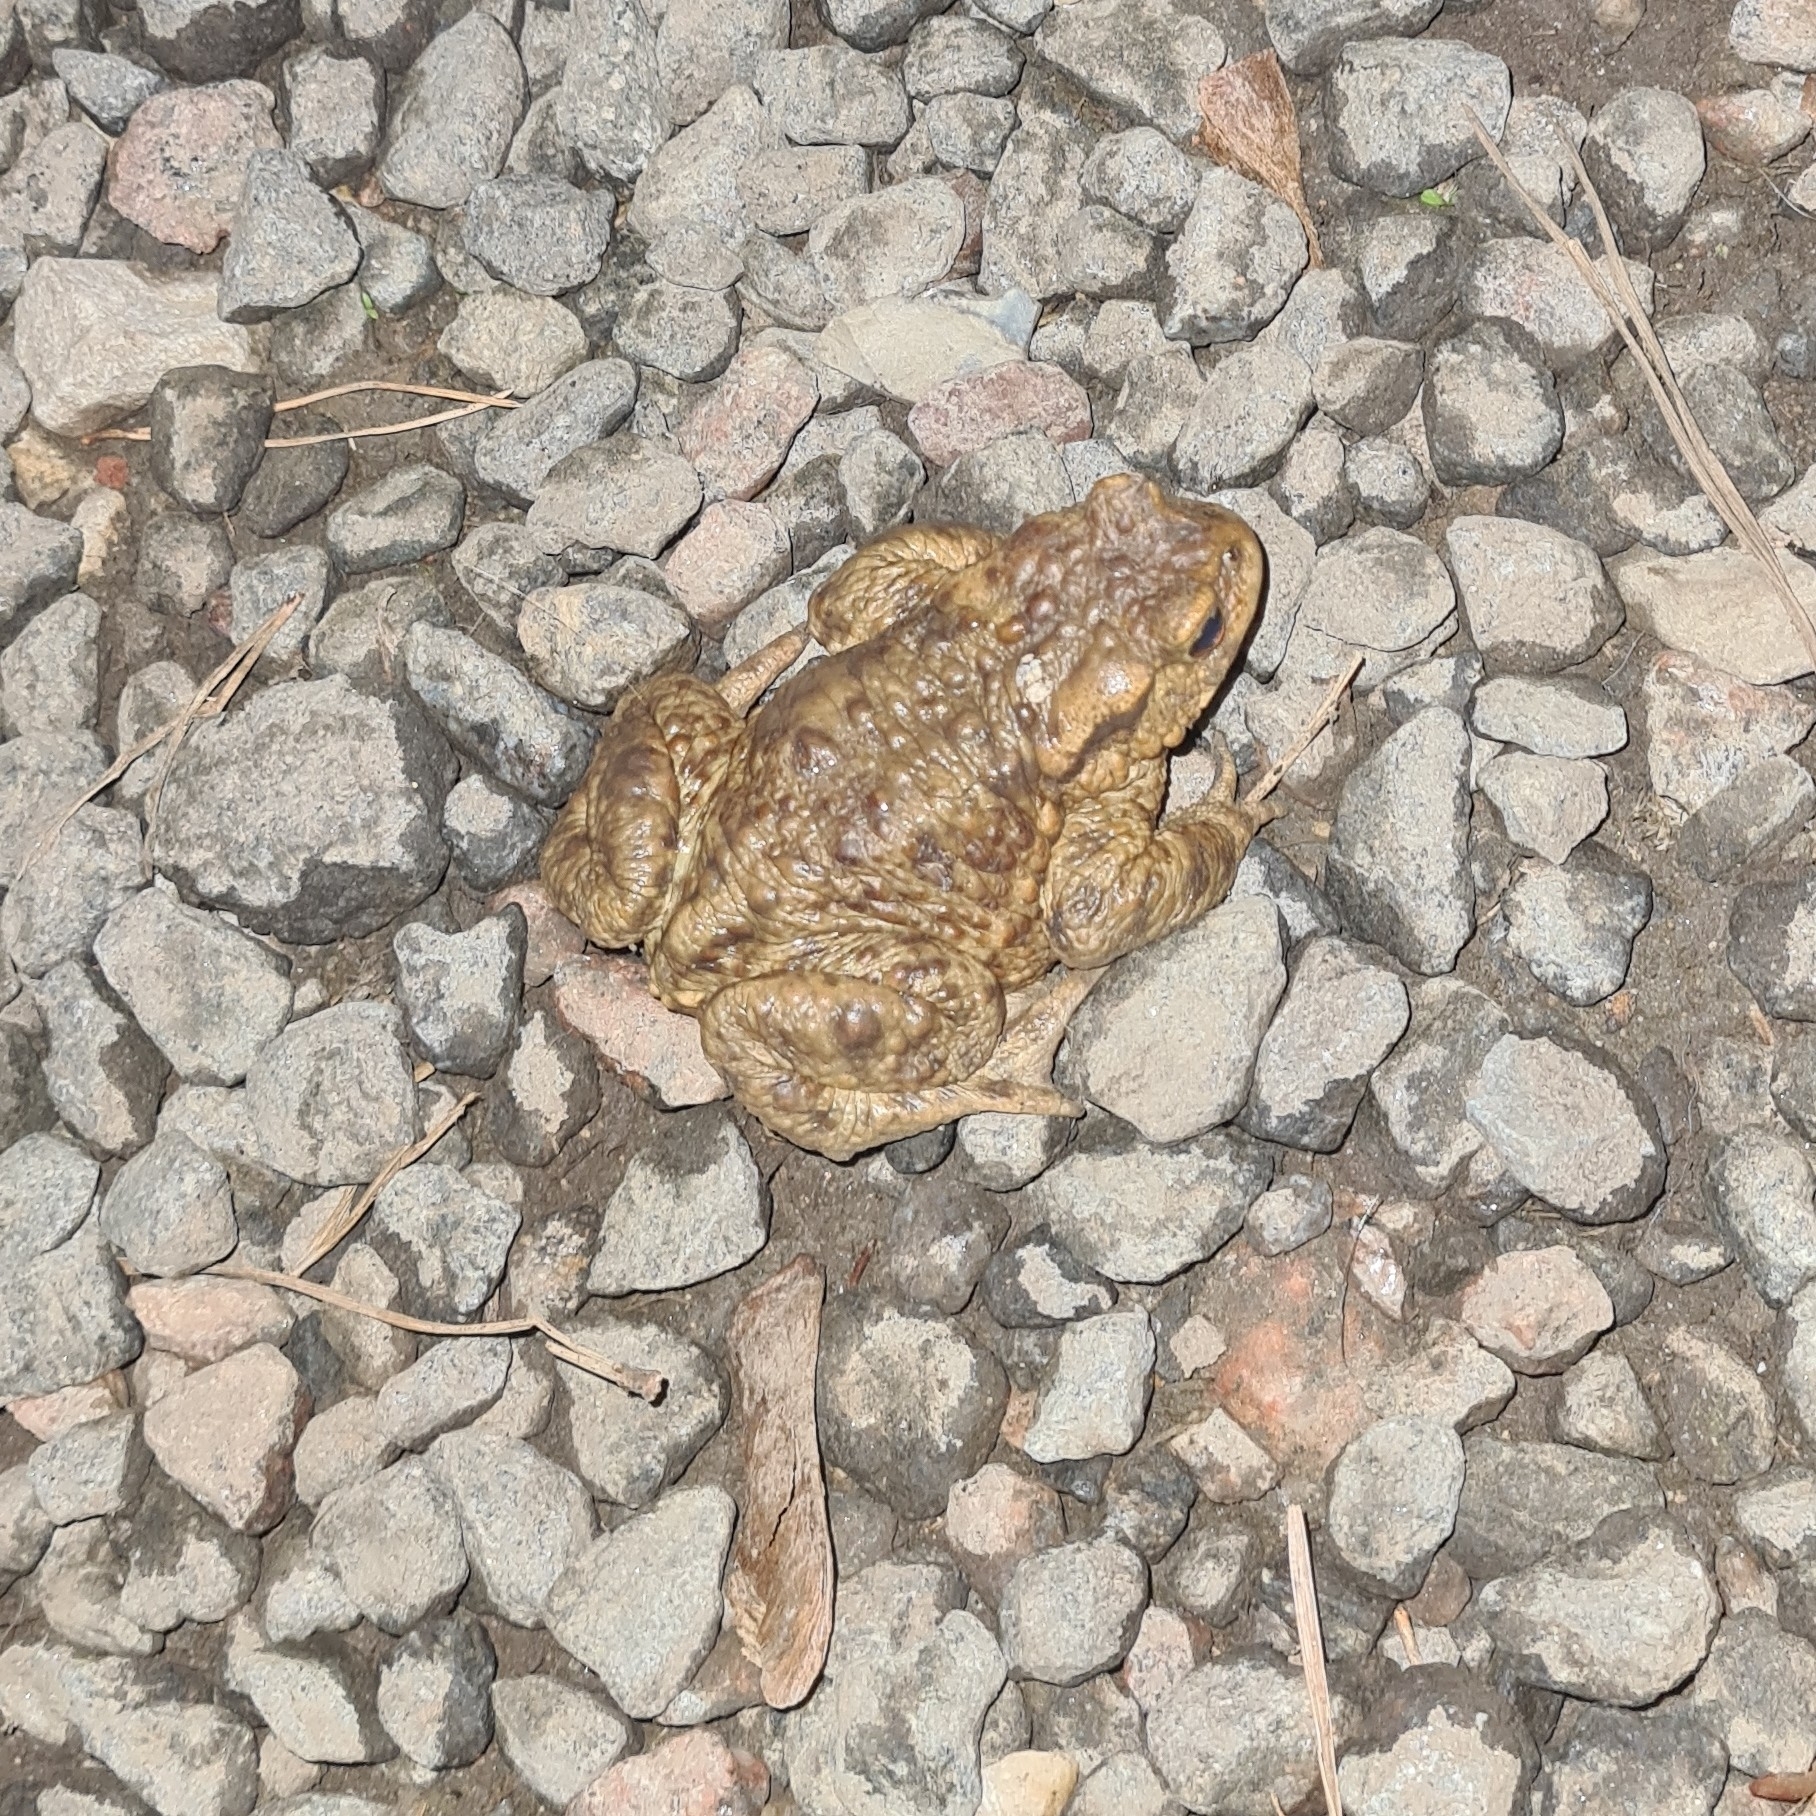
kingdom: Animalia
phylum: Chordata
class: Amphibia
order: Anura
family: Bufonidae
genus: Bufo
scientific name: Bufo bufo
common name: Common toad
